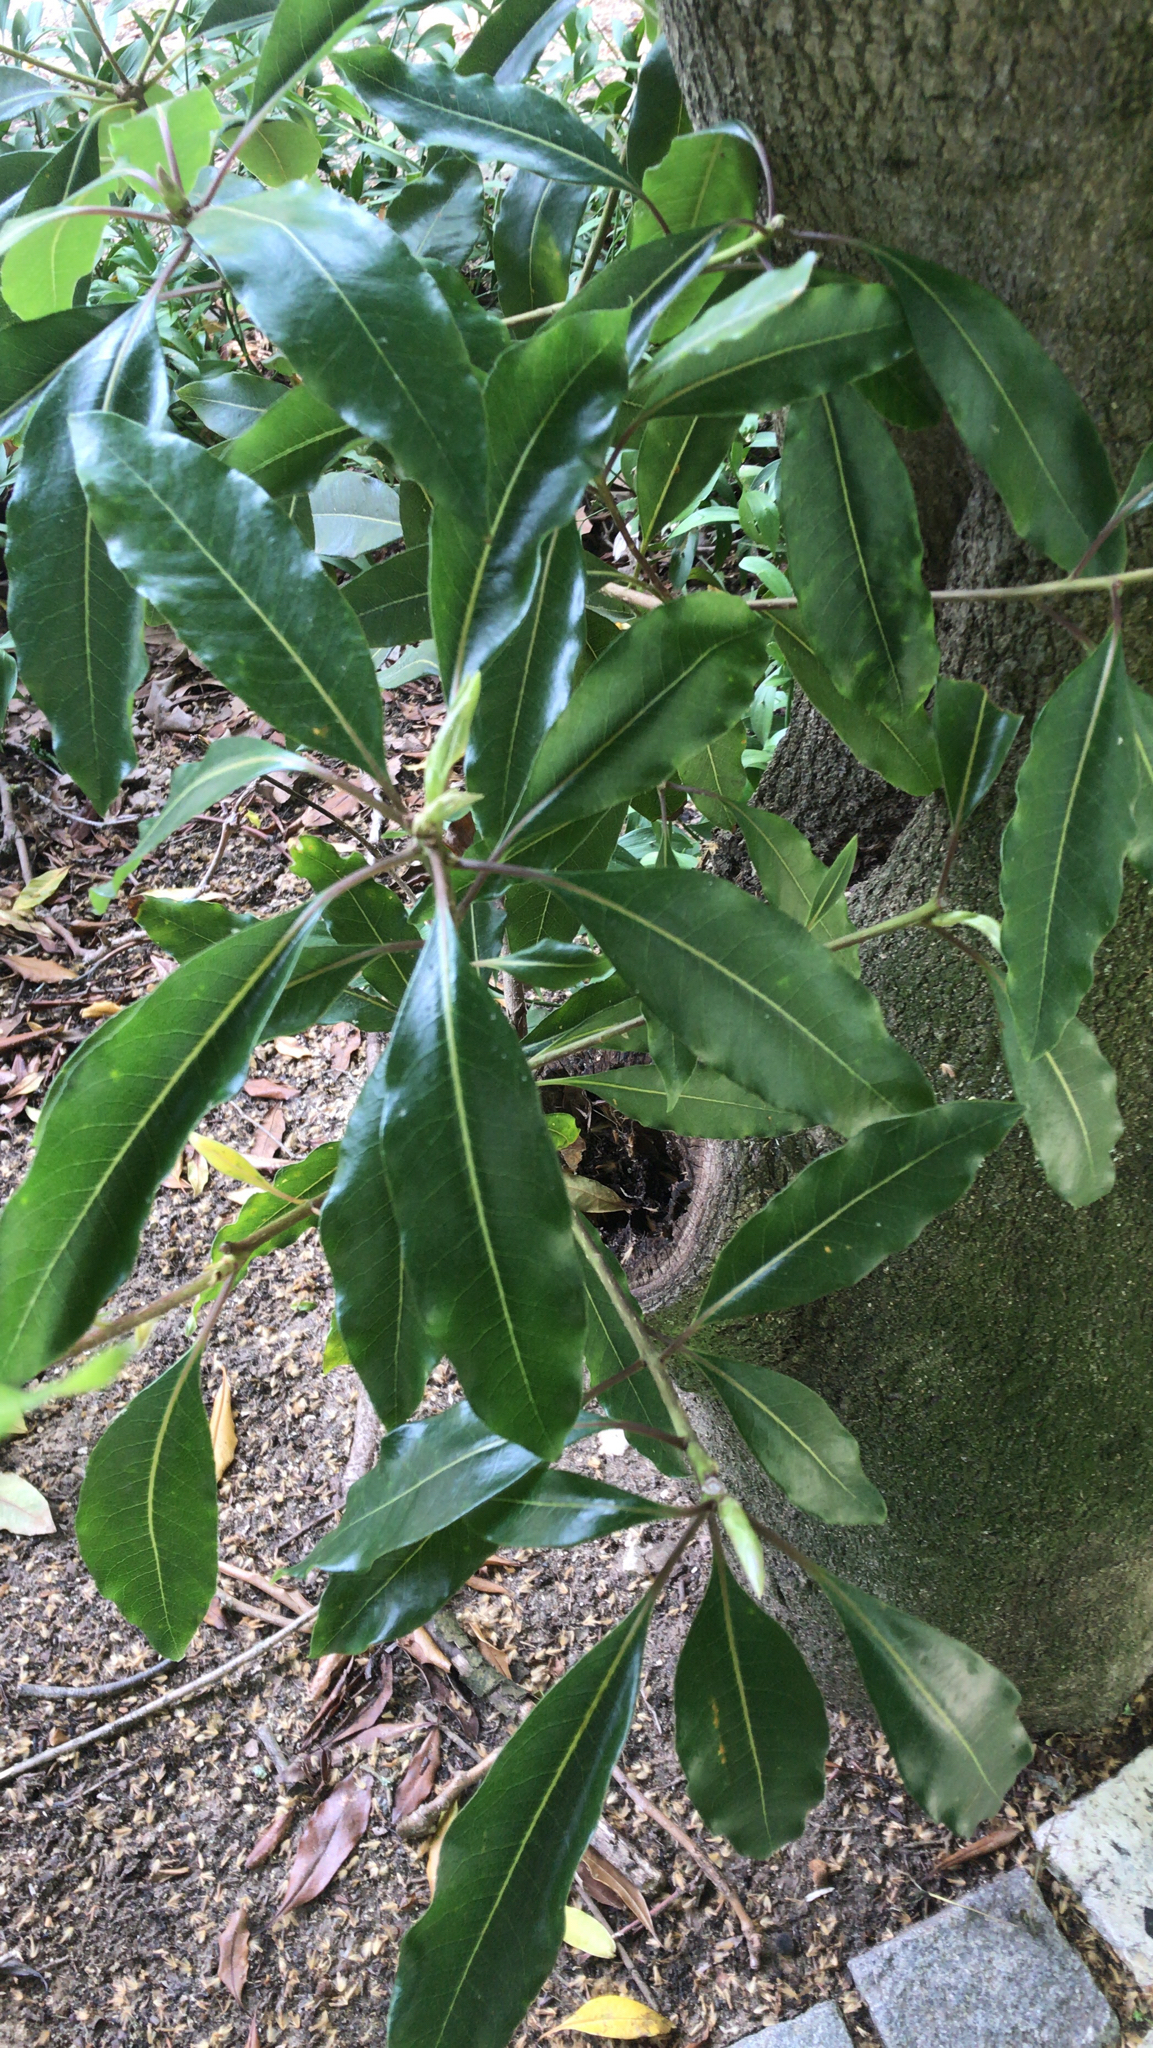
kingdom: Plantae
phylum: Tracheophyta
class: Magnoliopsida
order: Apiales
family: Pittosporaceae
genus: Pittosporum
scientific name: Pittosporum undulatum
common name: Australian cheesewood
